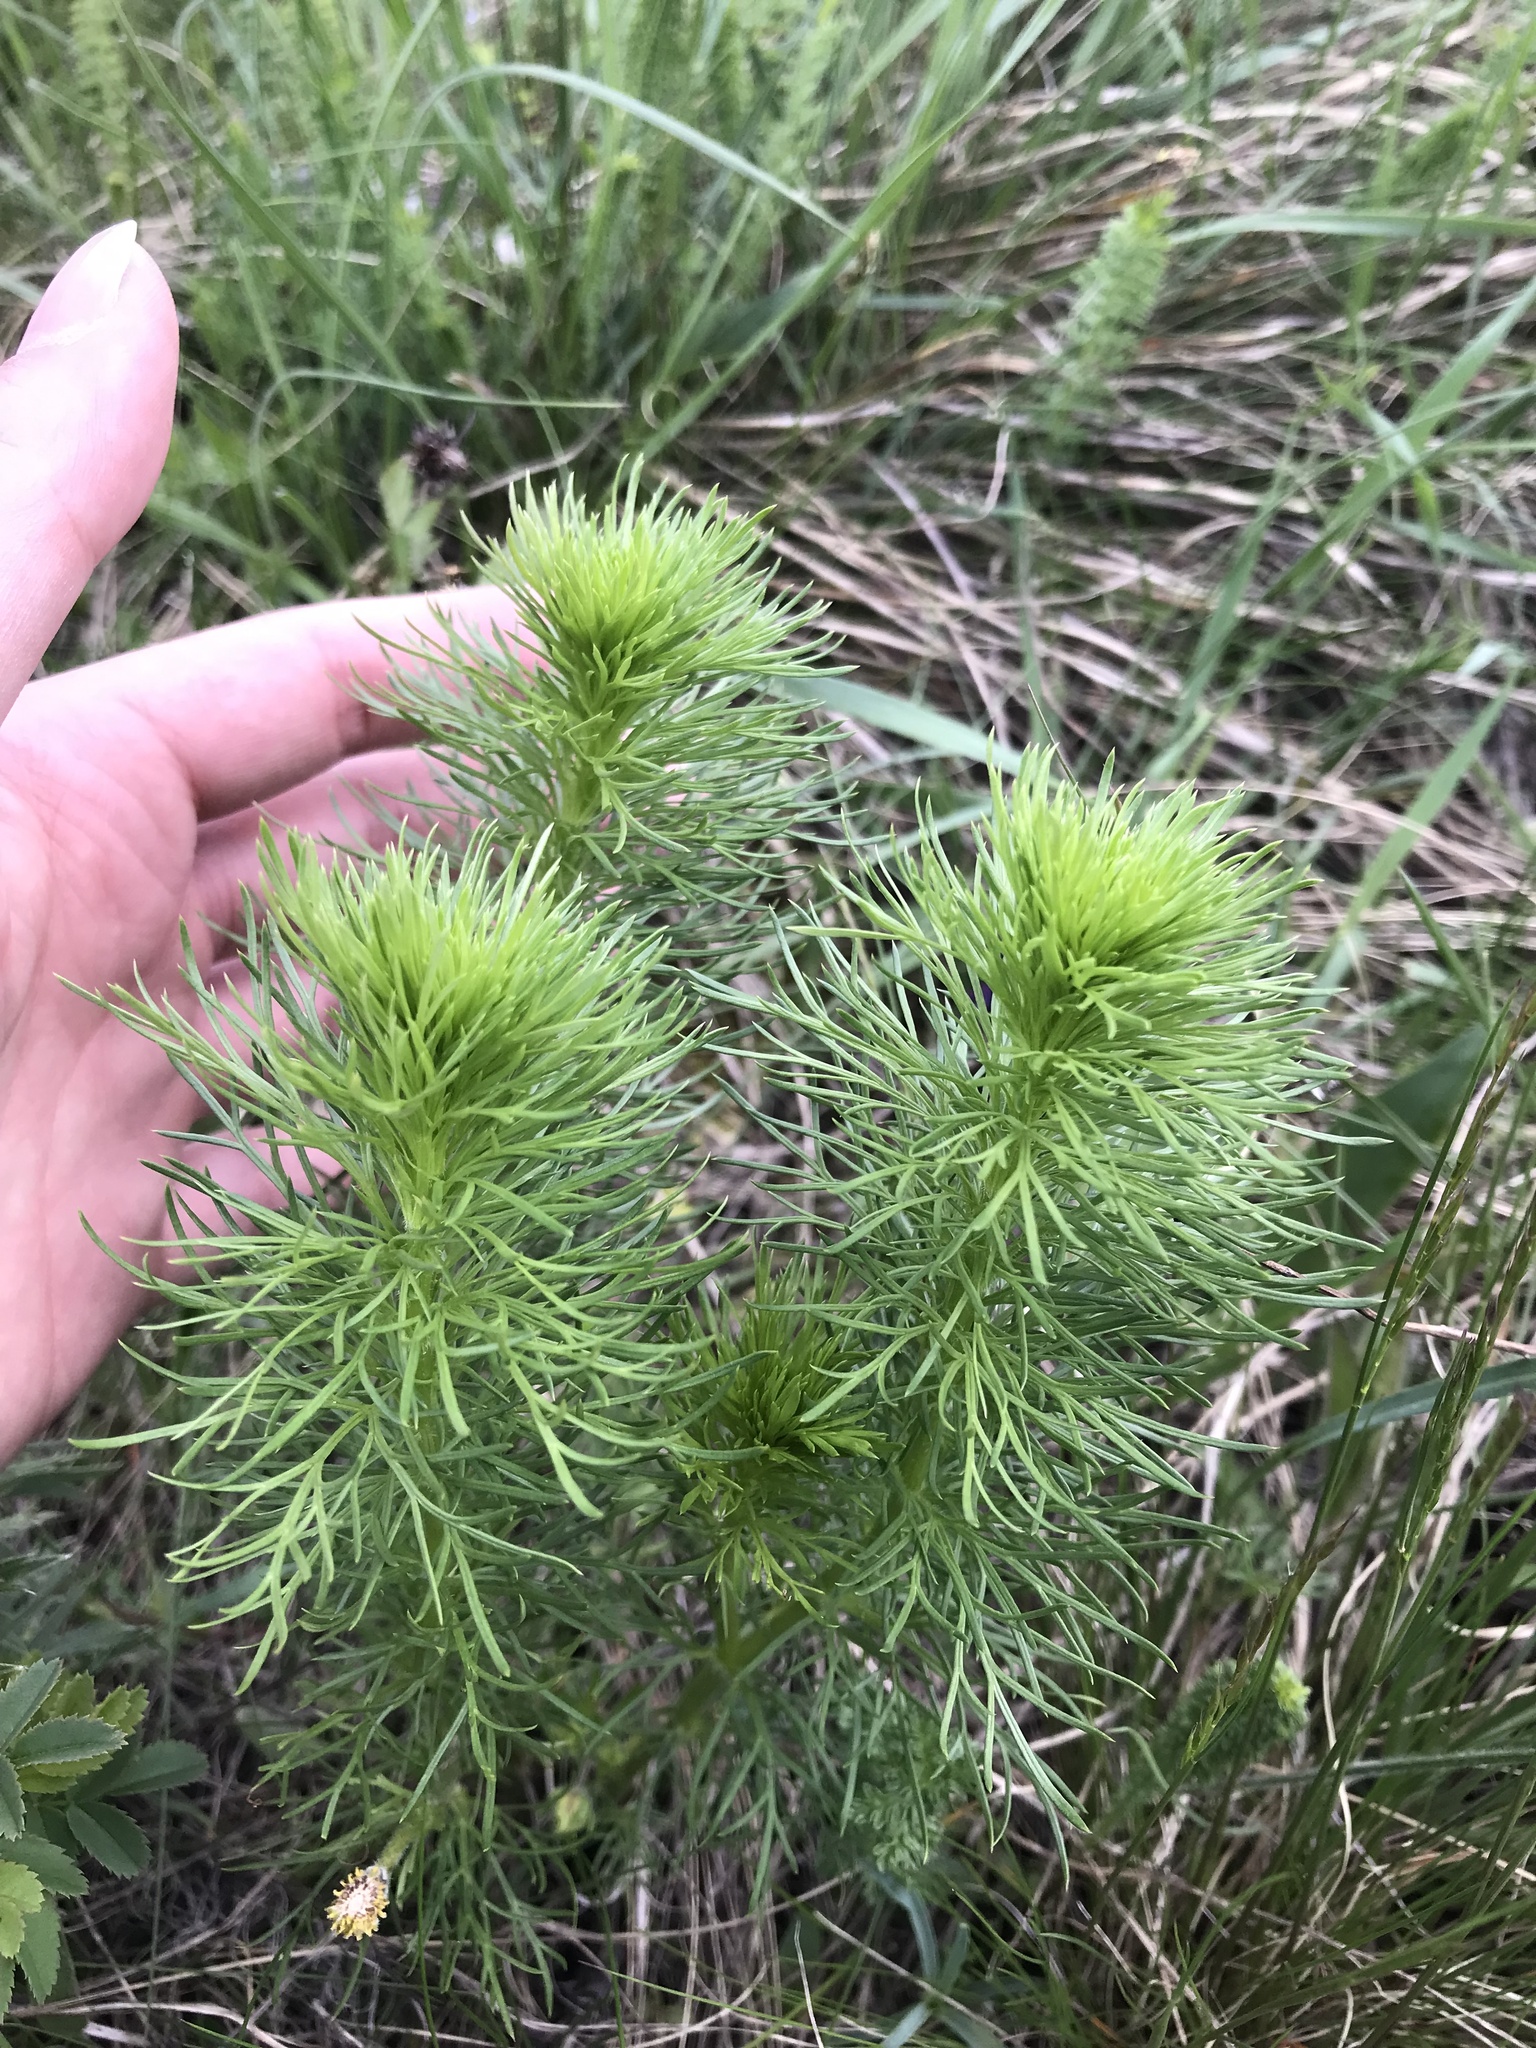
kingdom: Plantae
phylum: Tracheophyta
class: Magnoliopsida
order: Ranunculales
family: Ranunculaceae
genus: Adonis
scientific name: Adonis vernalis
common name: Yellow pheasants-eye
